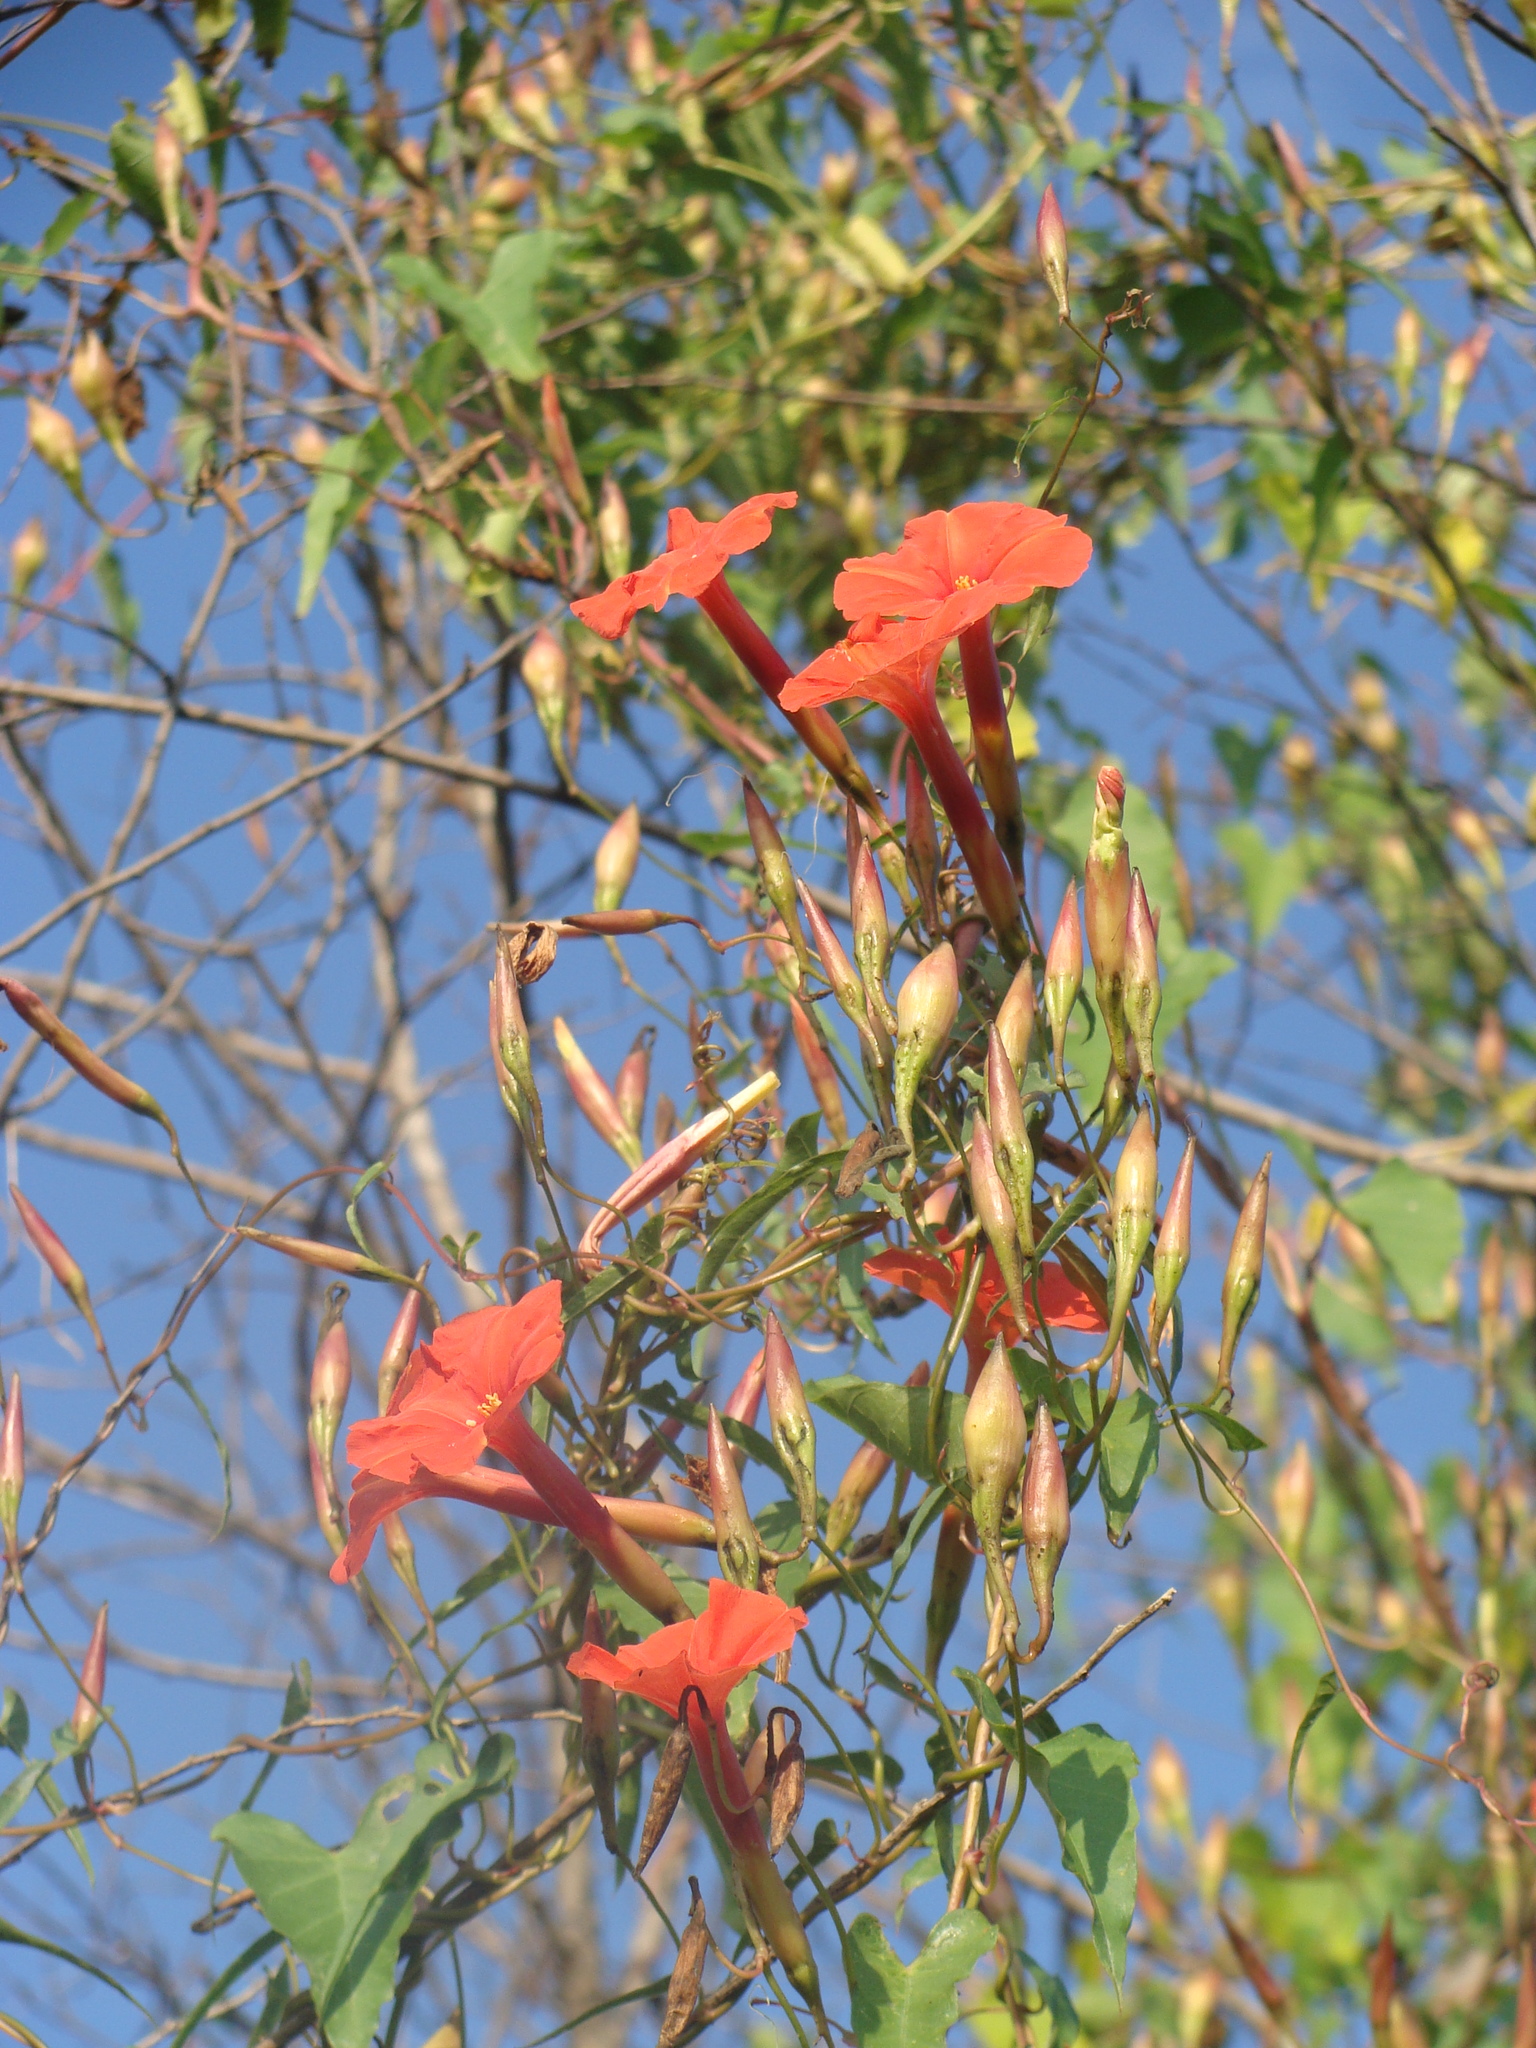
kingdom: Plantae
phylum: Tracheophyta
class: Magnoliopsida
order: Solanales
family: Convolvulaceae
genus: Operculina
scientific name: Operculina pteripes
